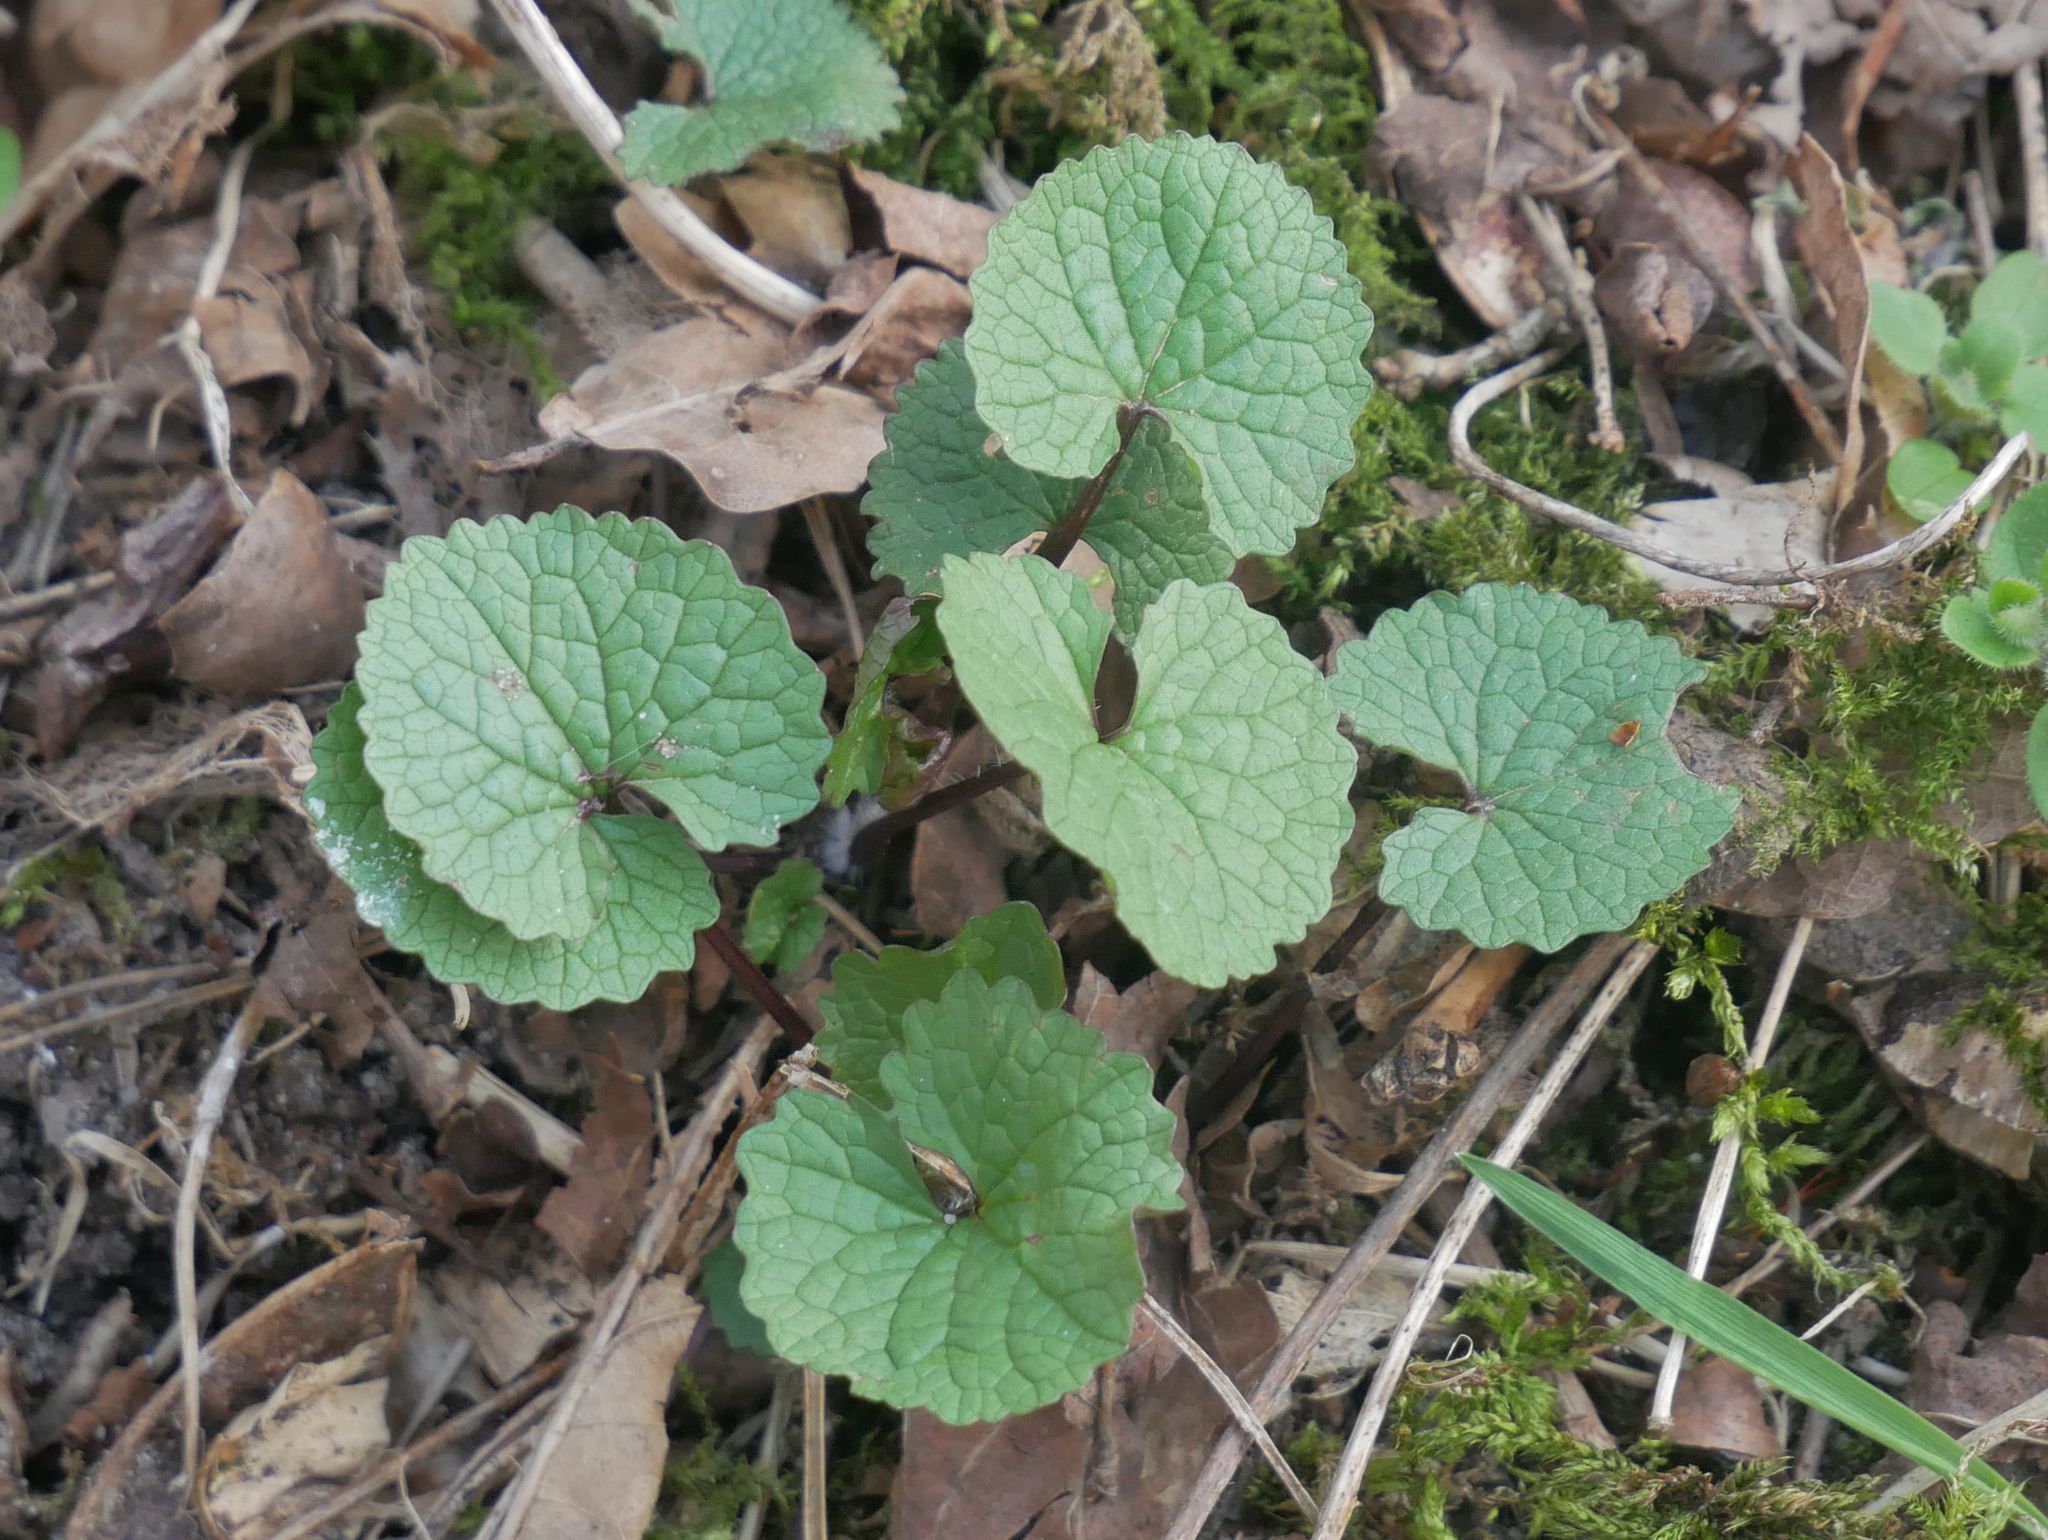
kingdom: Plantae
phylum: Tracheophyta
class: Magnoliopsida
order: Brassicales
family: Brassicaceae
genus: Alliaria
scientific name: Alliaria petiolata
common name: Garlic mustard
